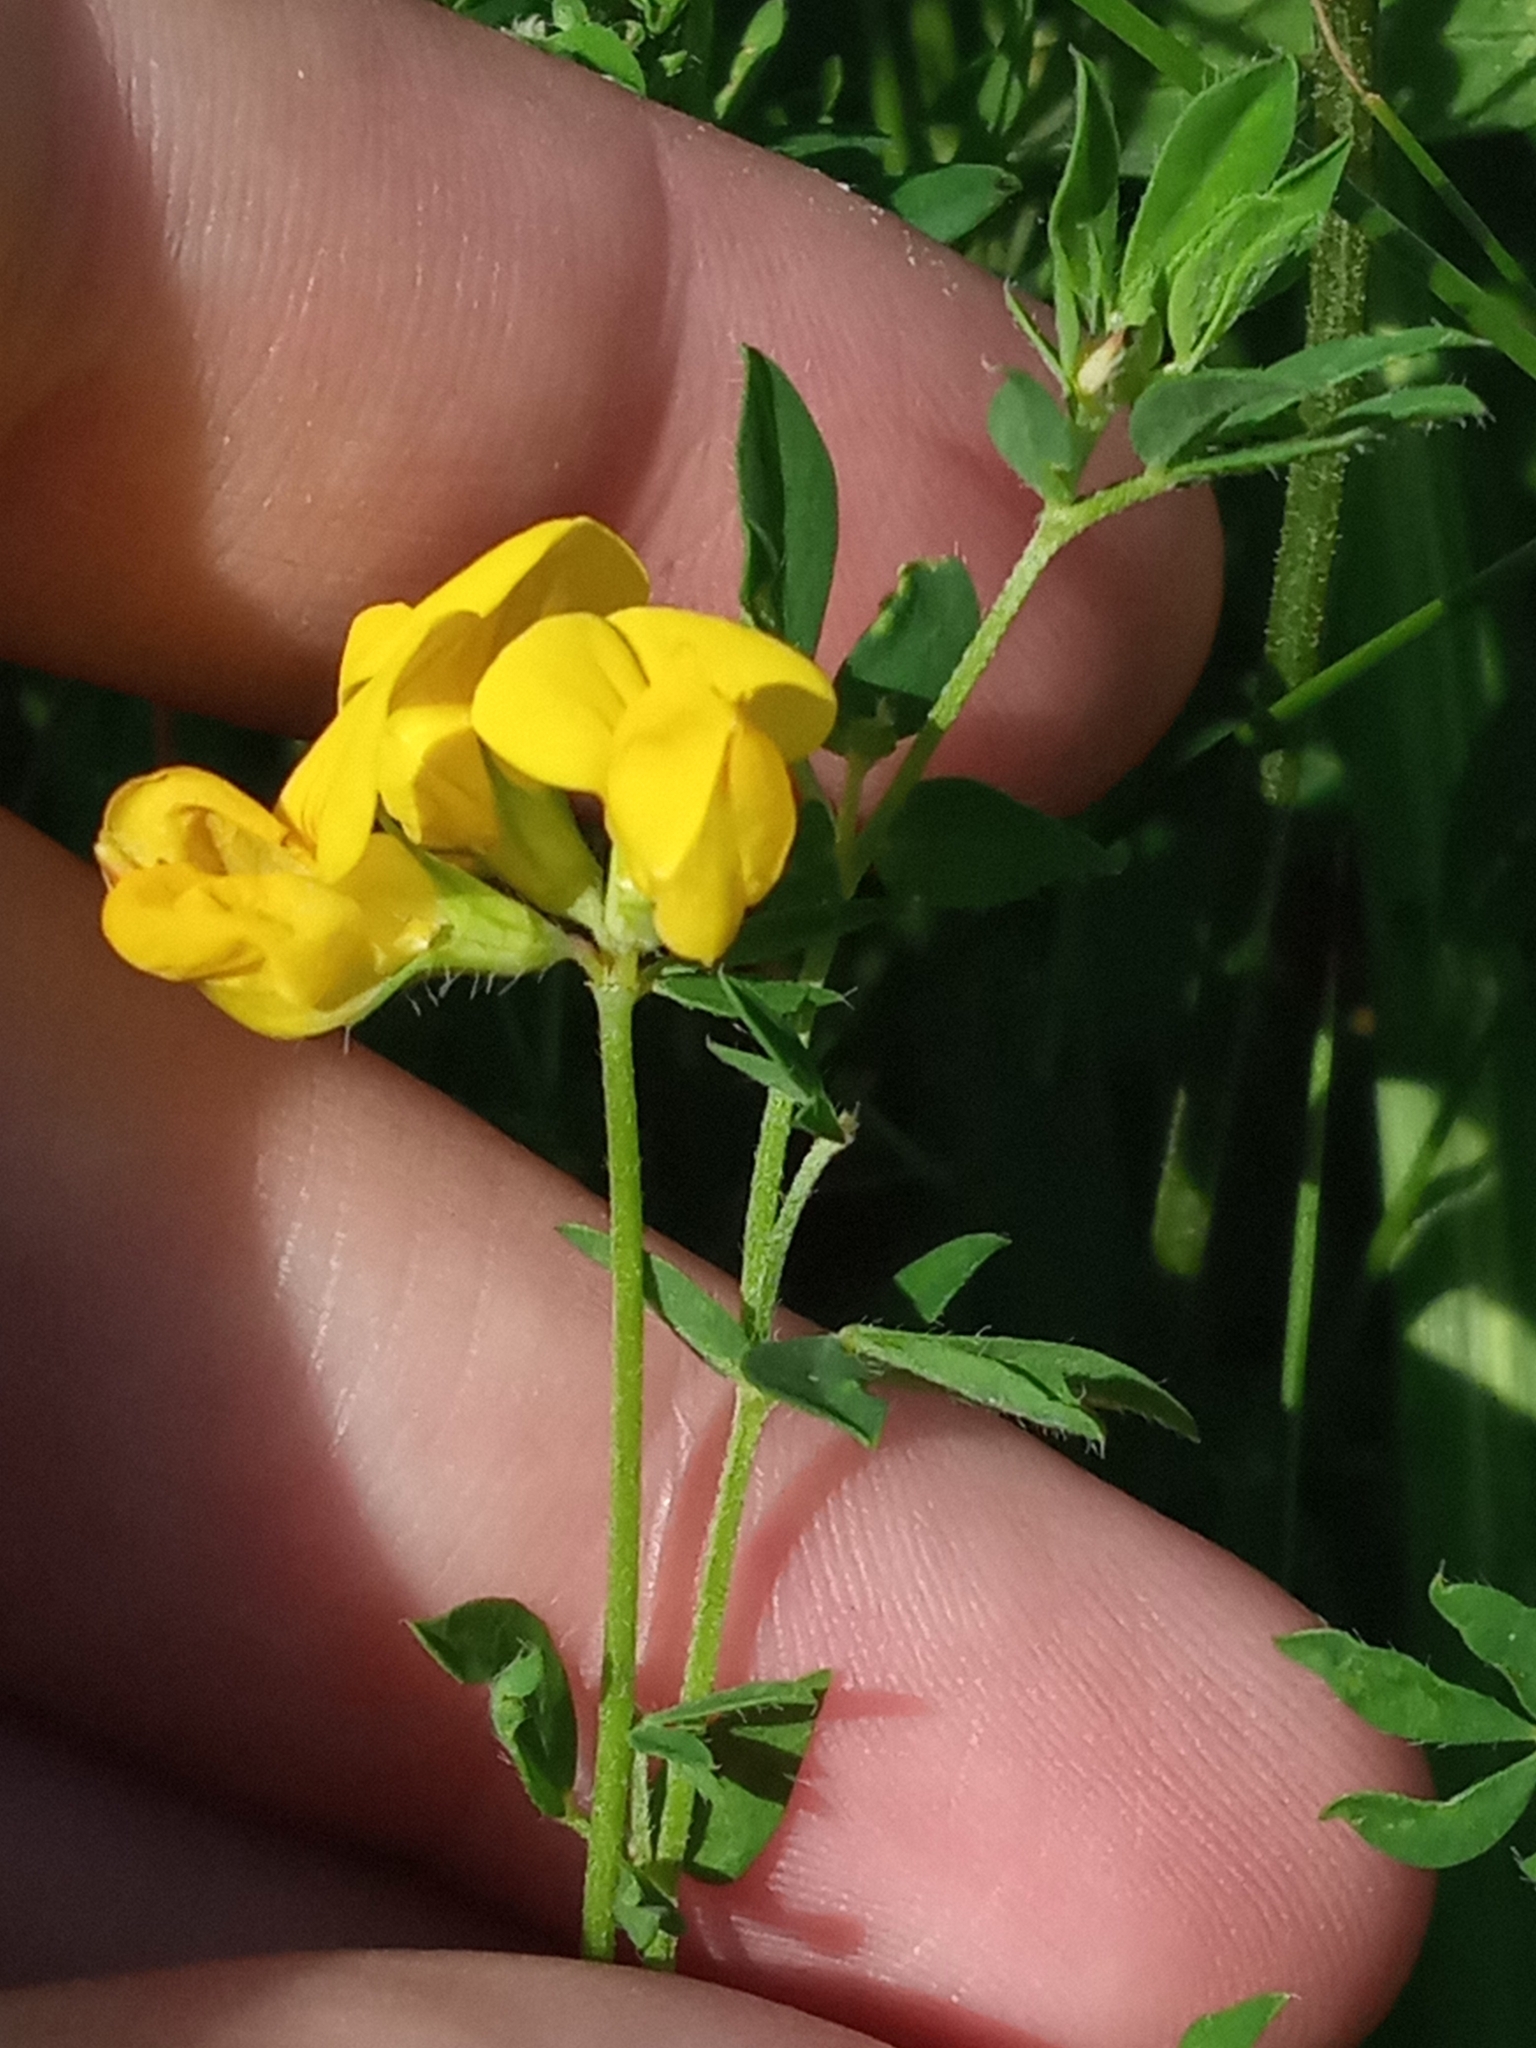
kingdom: Plantae
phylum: Tracheophyta
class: Magnoliopsida
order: Fabales
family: Fabaceae
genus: Lotus
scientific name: Lotus corniculatus
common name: Common bird's-foot-trefoil
